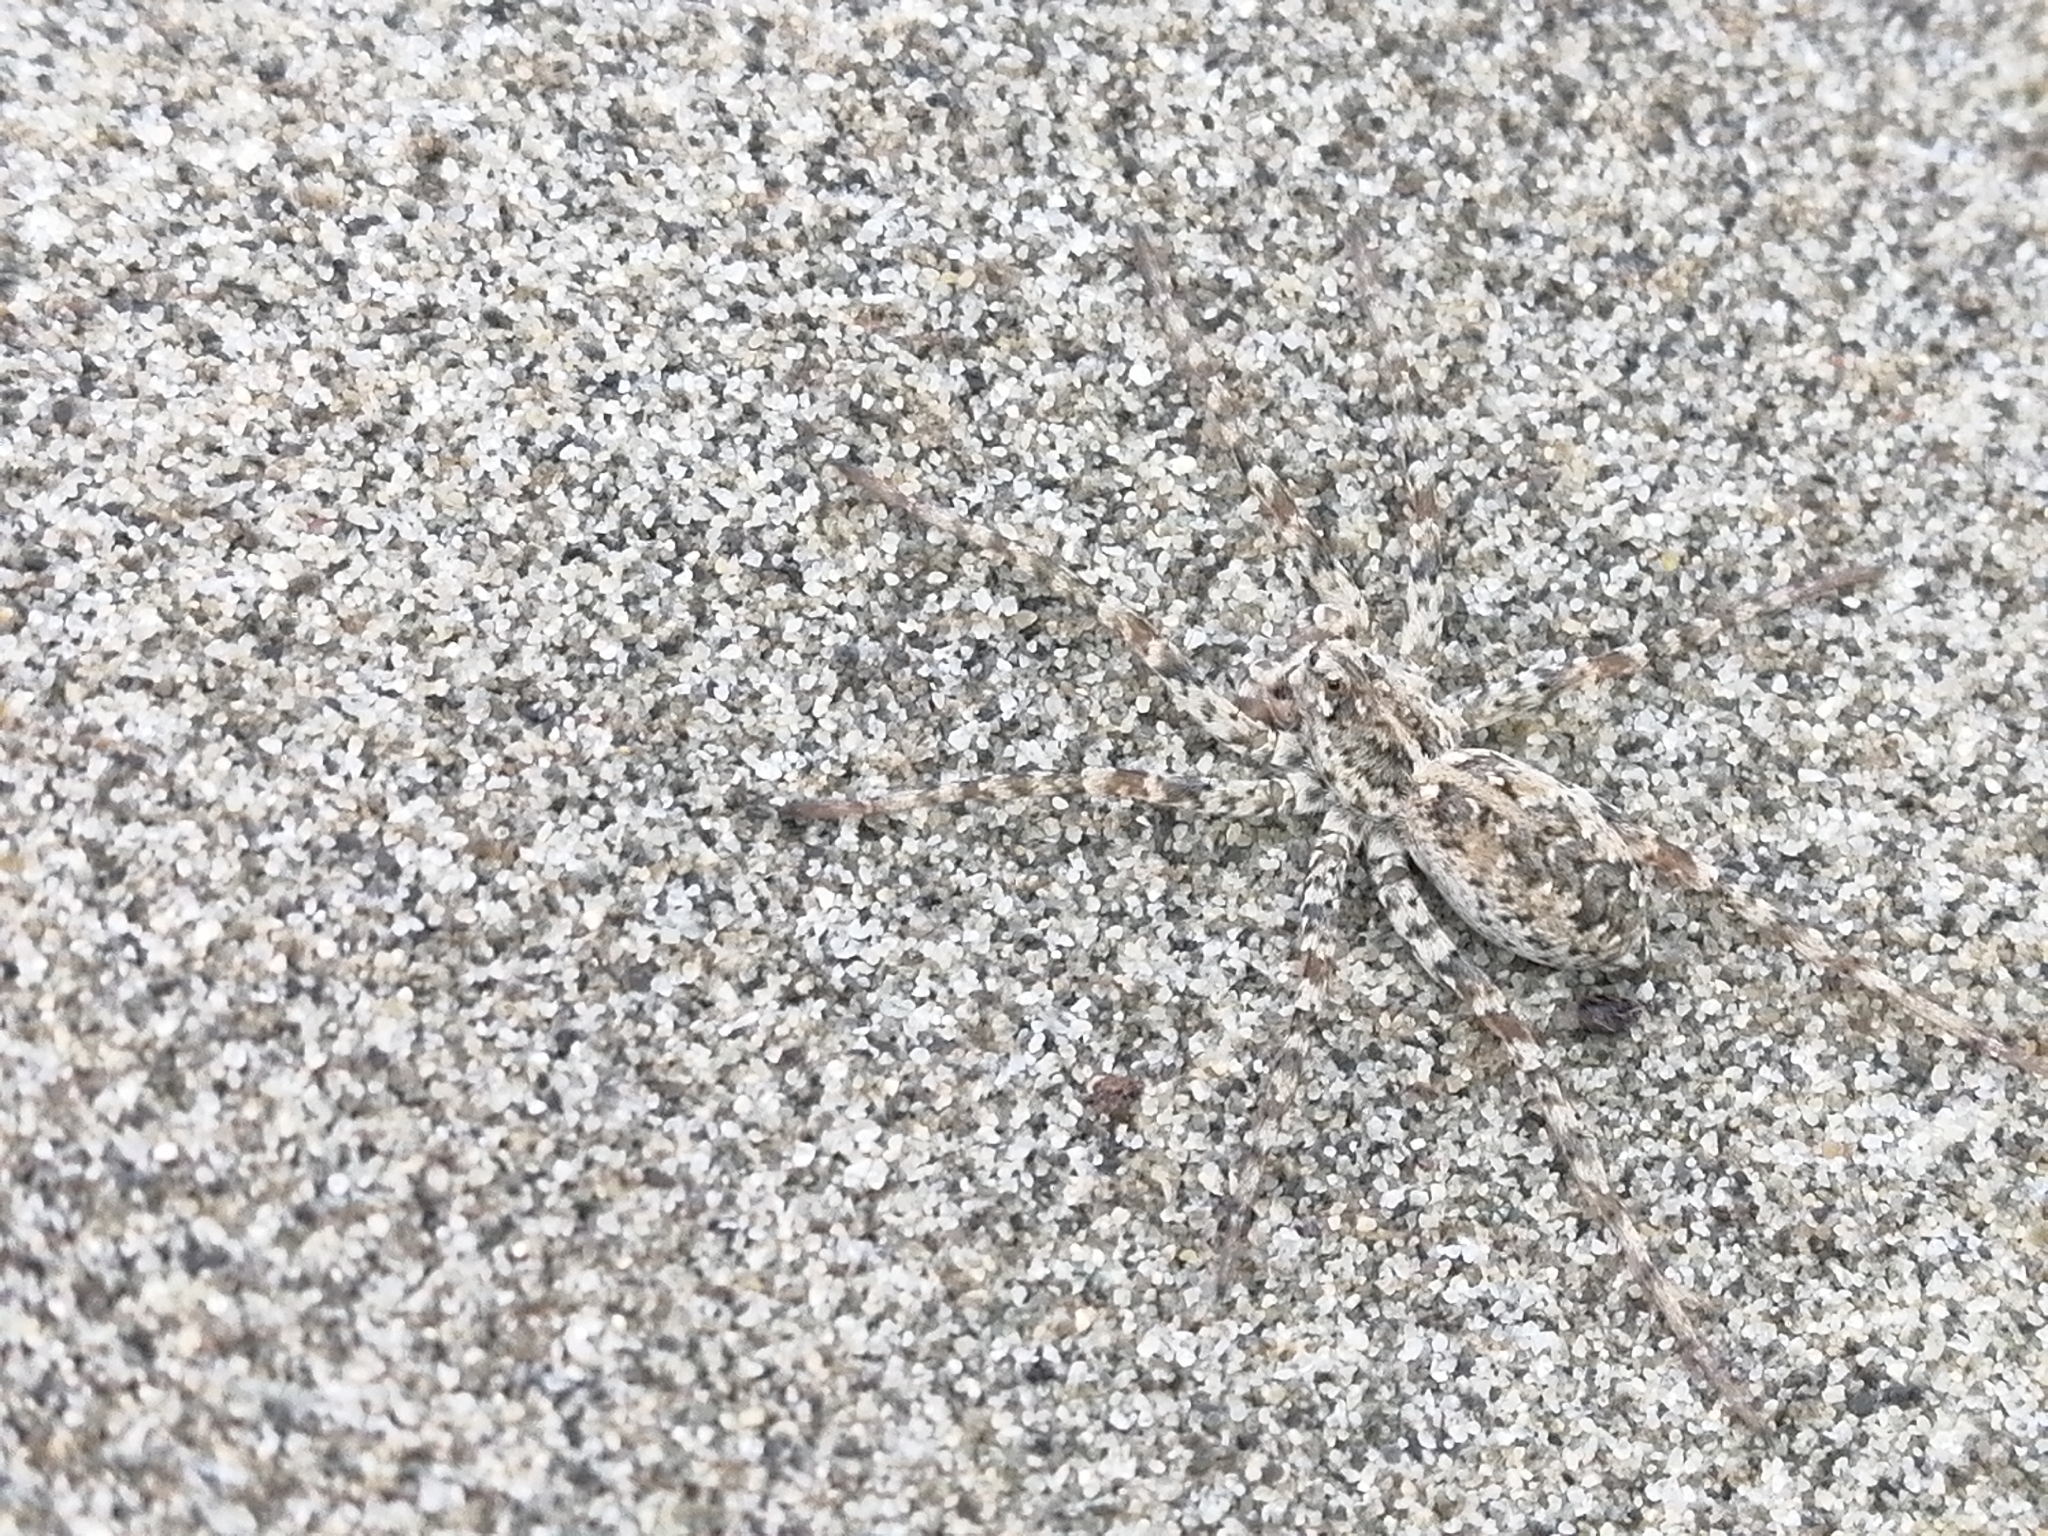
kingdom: Animalia
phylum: Arthropoda
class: Arachnida
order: Araneae
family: Lycosidae
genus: Anoteropsis
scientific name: Anoteropsis litoralis
